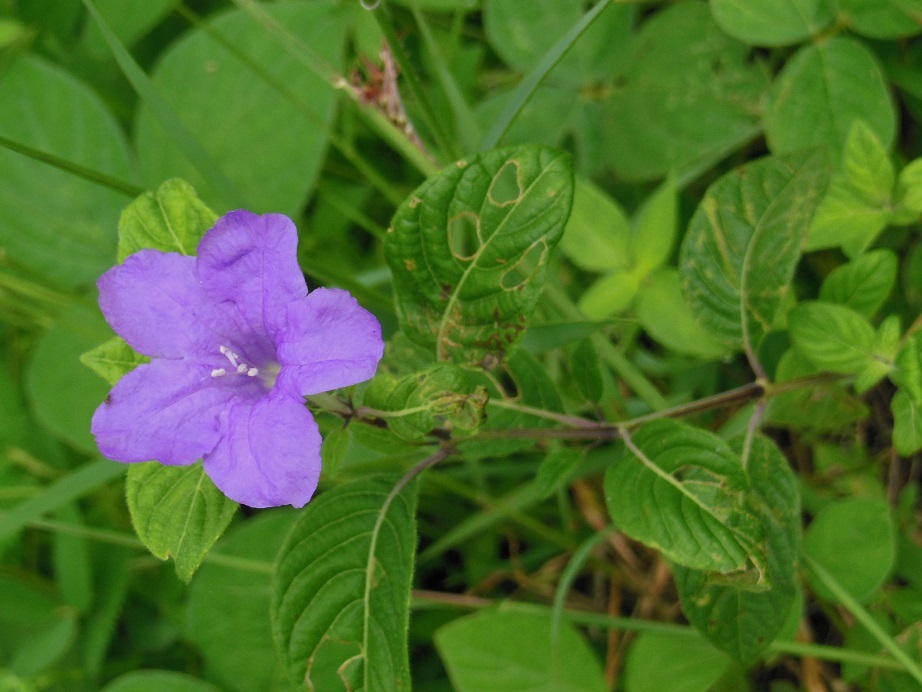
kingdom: Plantae
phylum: Tracheophyta
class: Magnoliopsida
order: Lamiales
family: Acanthaceae
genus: Ruellia
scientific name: Ruellia lactea
